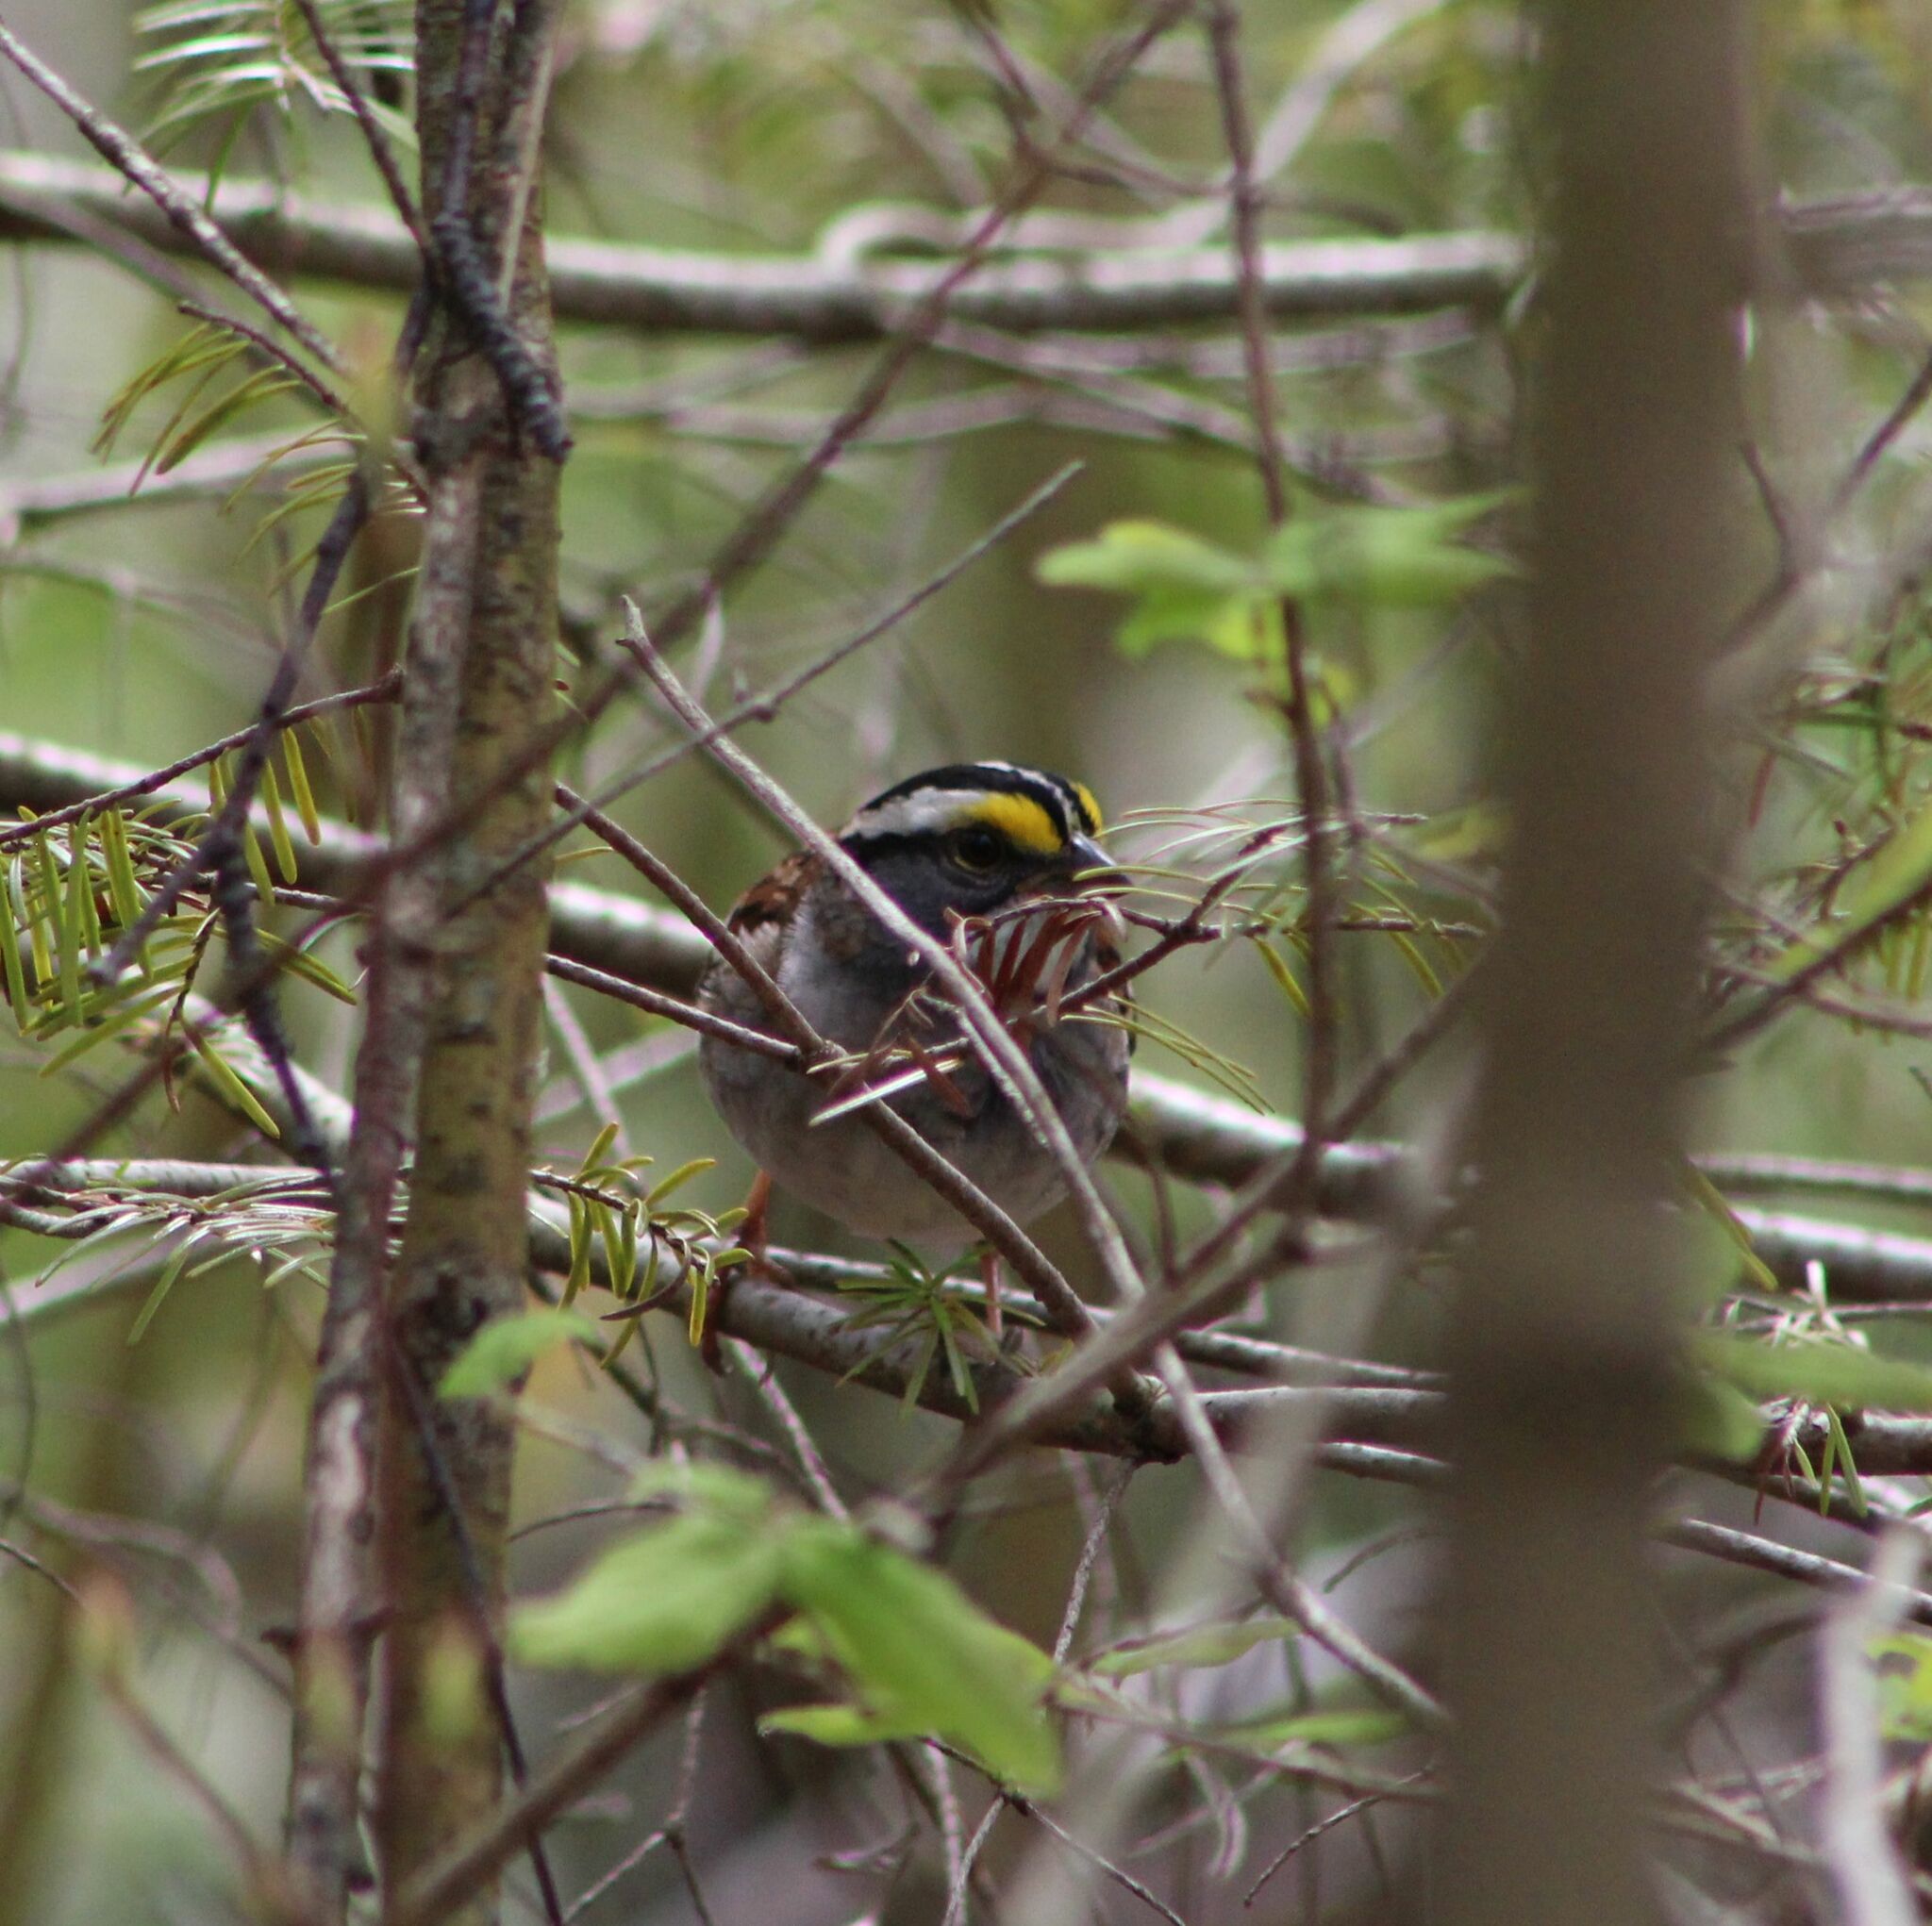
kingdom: Animalia
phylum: Chordata
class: Aves
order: Passeriformes
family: Passerellidae
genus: Zonotrichia
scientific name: Zonotrichia albicollis
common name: White-throated sparrow
